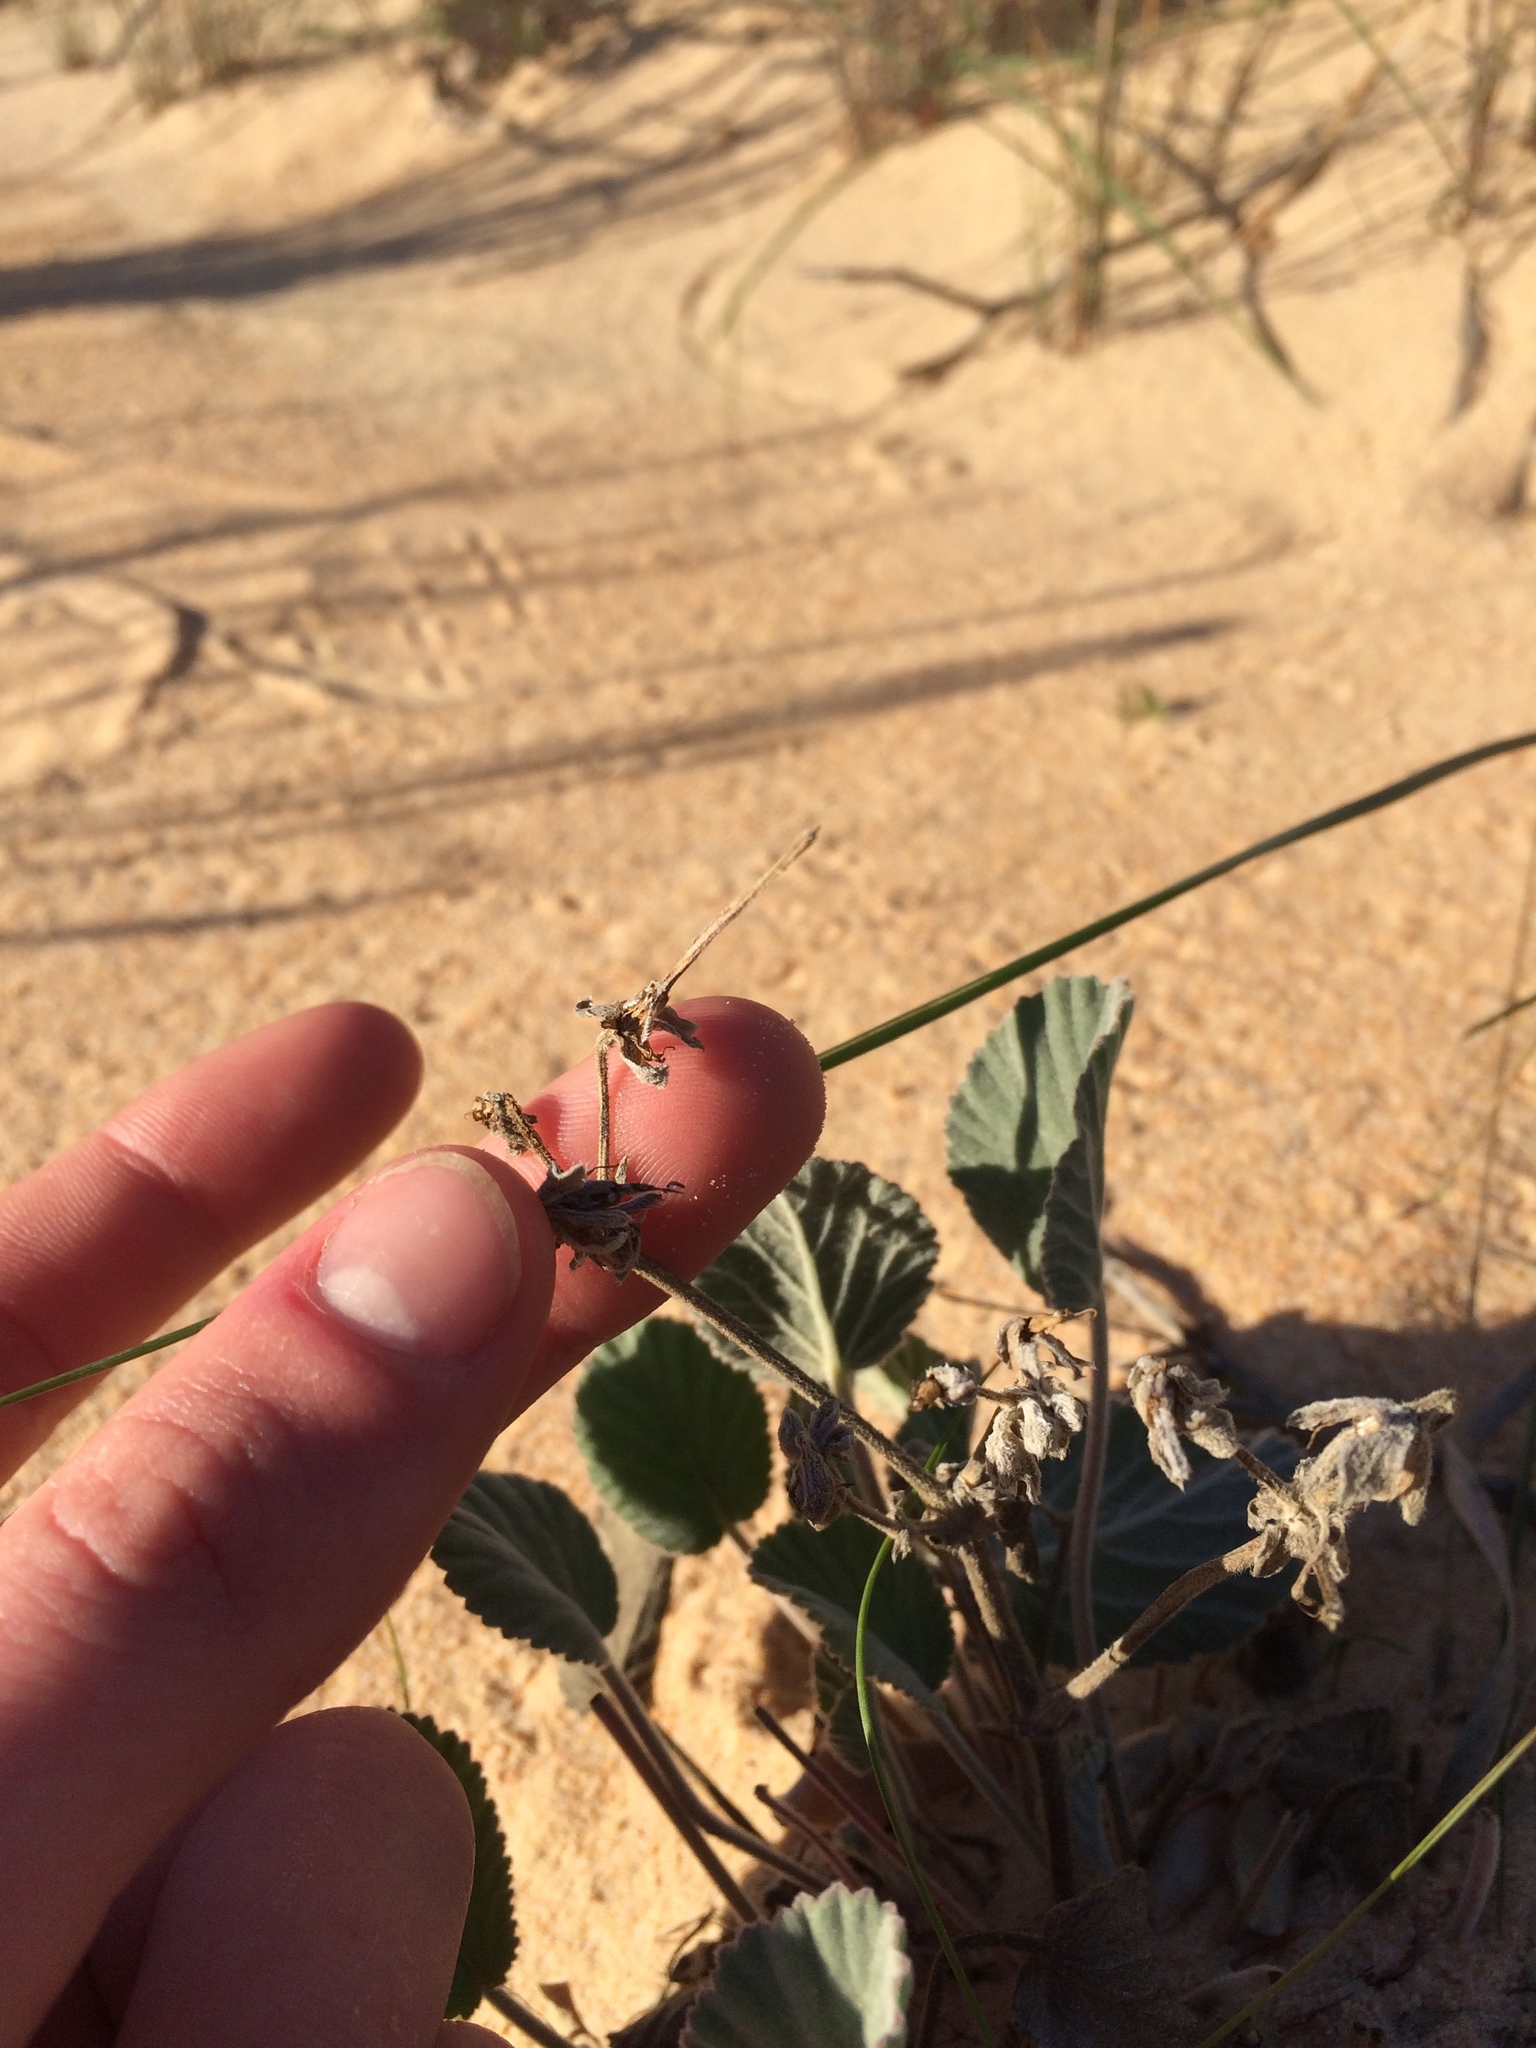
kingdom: Plantae
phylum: Tracheophyta
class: Magnoliopsida
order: Geraniales
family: Geraniaceae
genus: Pelargonium
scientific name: Pelargonium ovale
